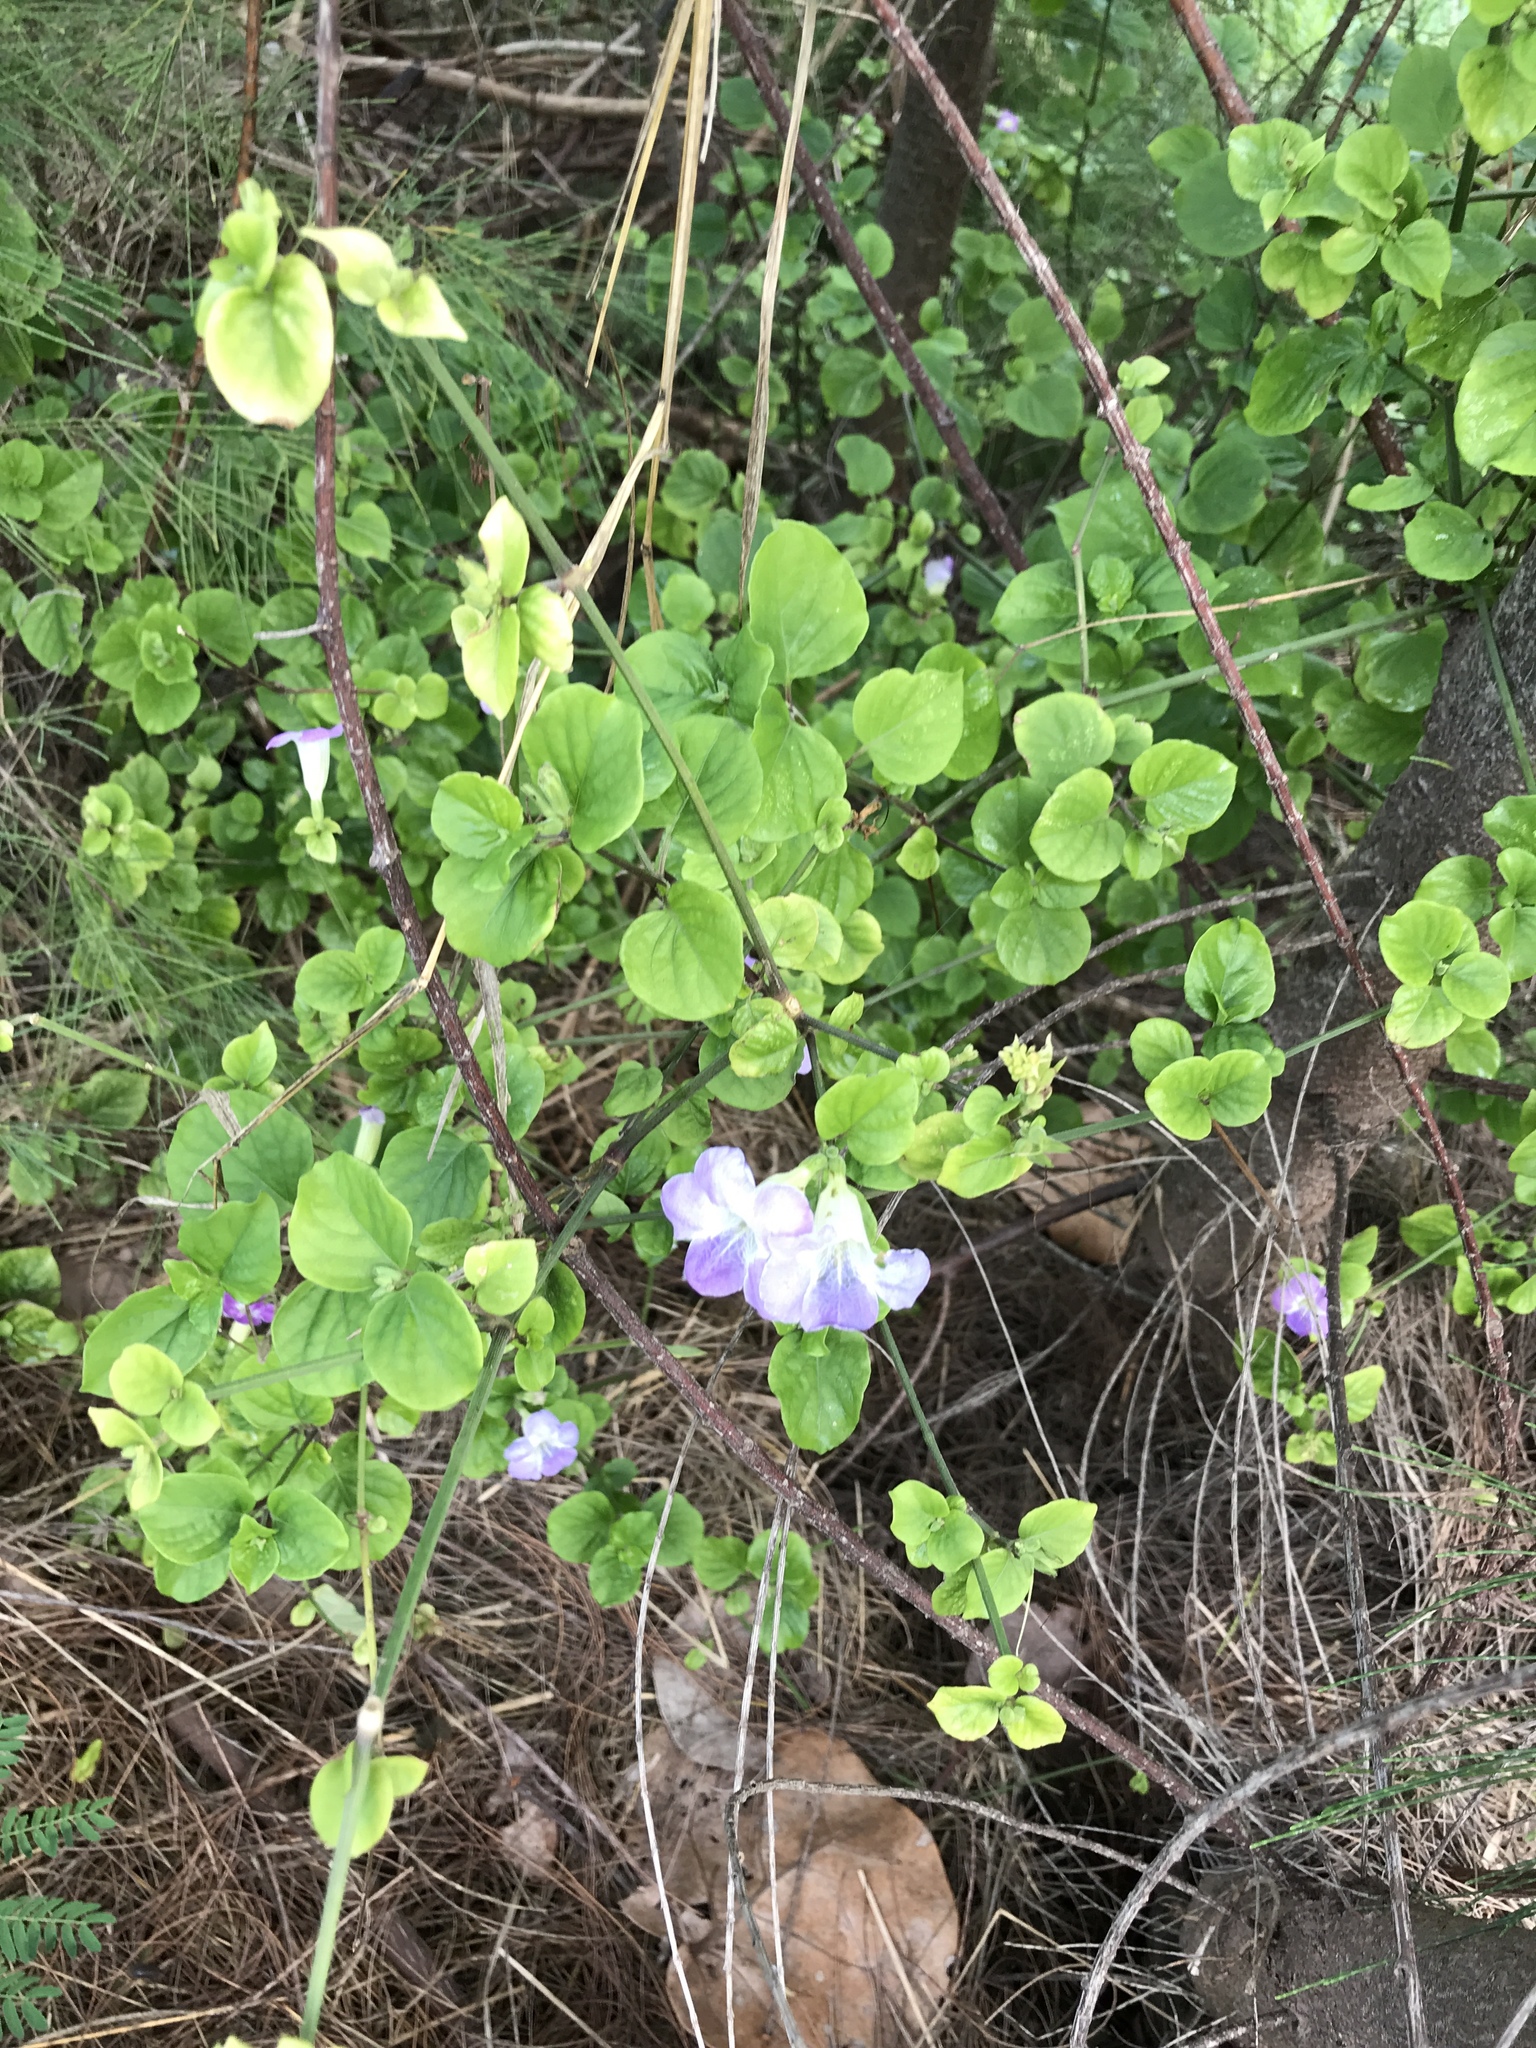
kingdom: Plantae
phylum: Tracheophyta
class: Magnoliopsida
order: Lamiales
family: Acanthaceae
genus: Asystasia
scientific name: Asystasia gangetica
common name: Chinese violet
